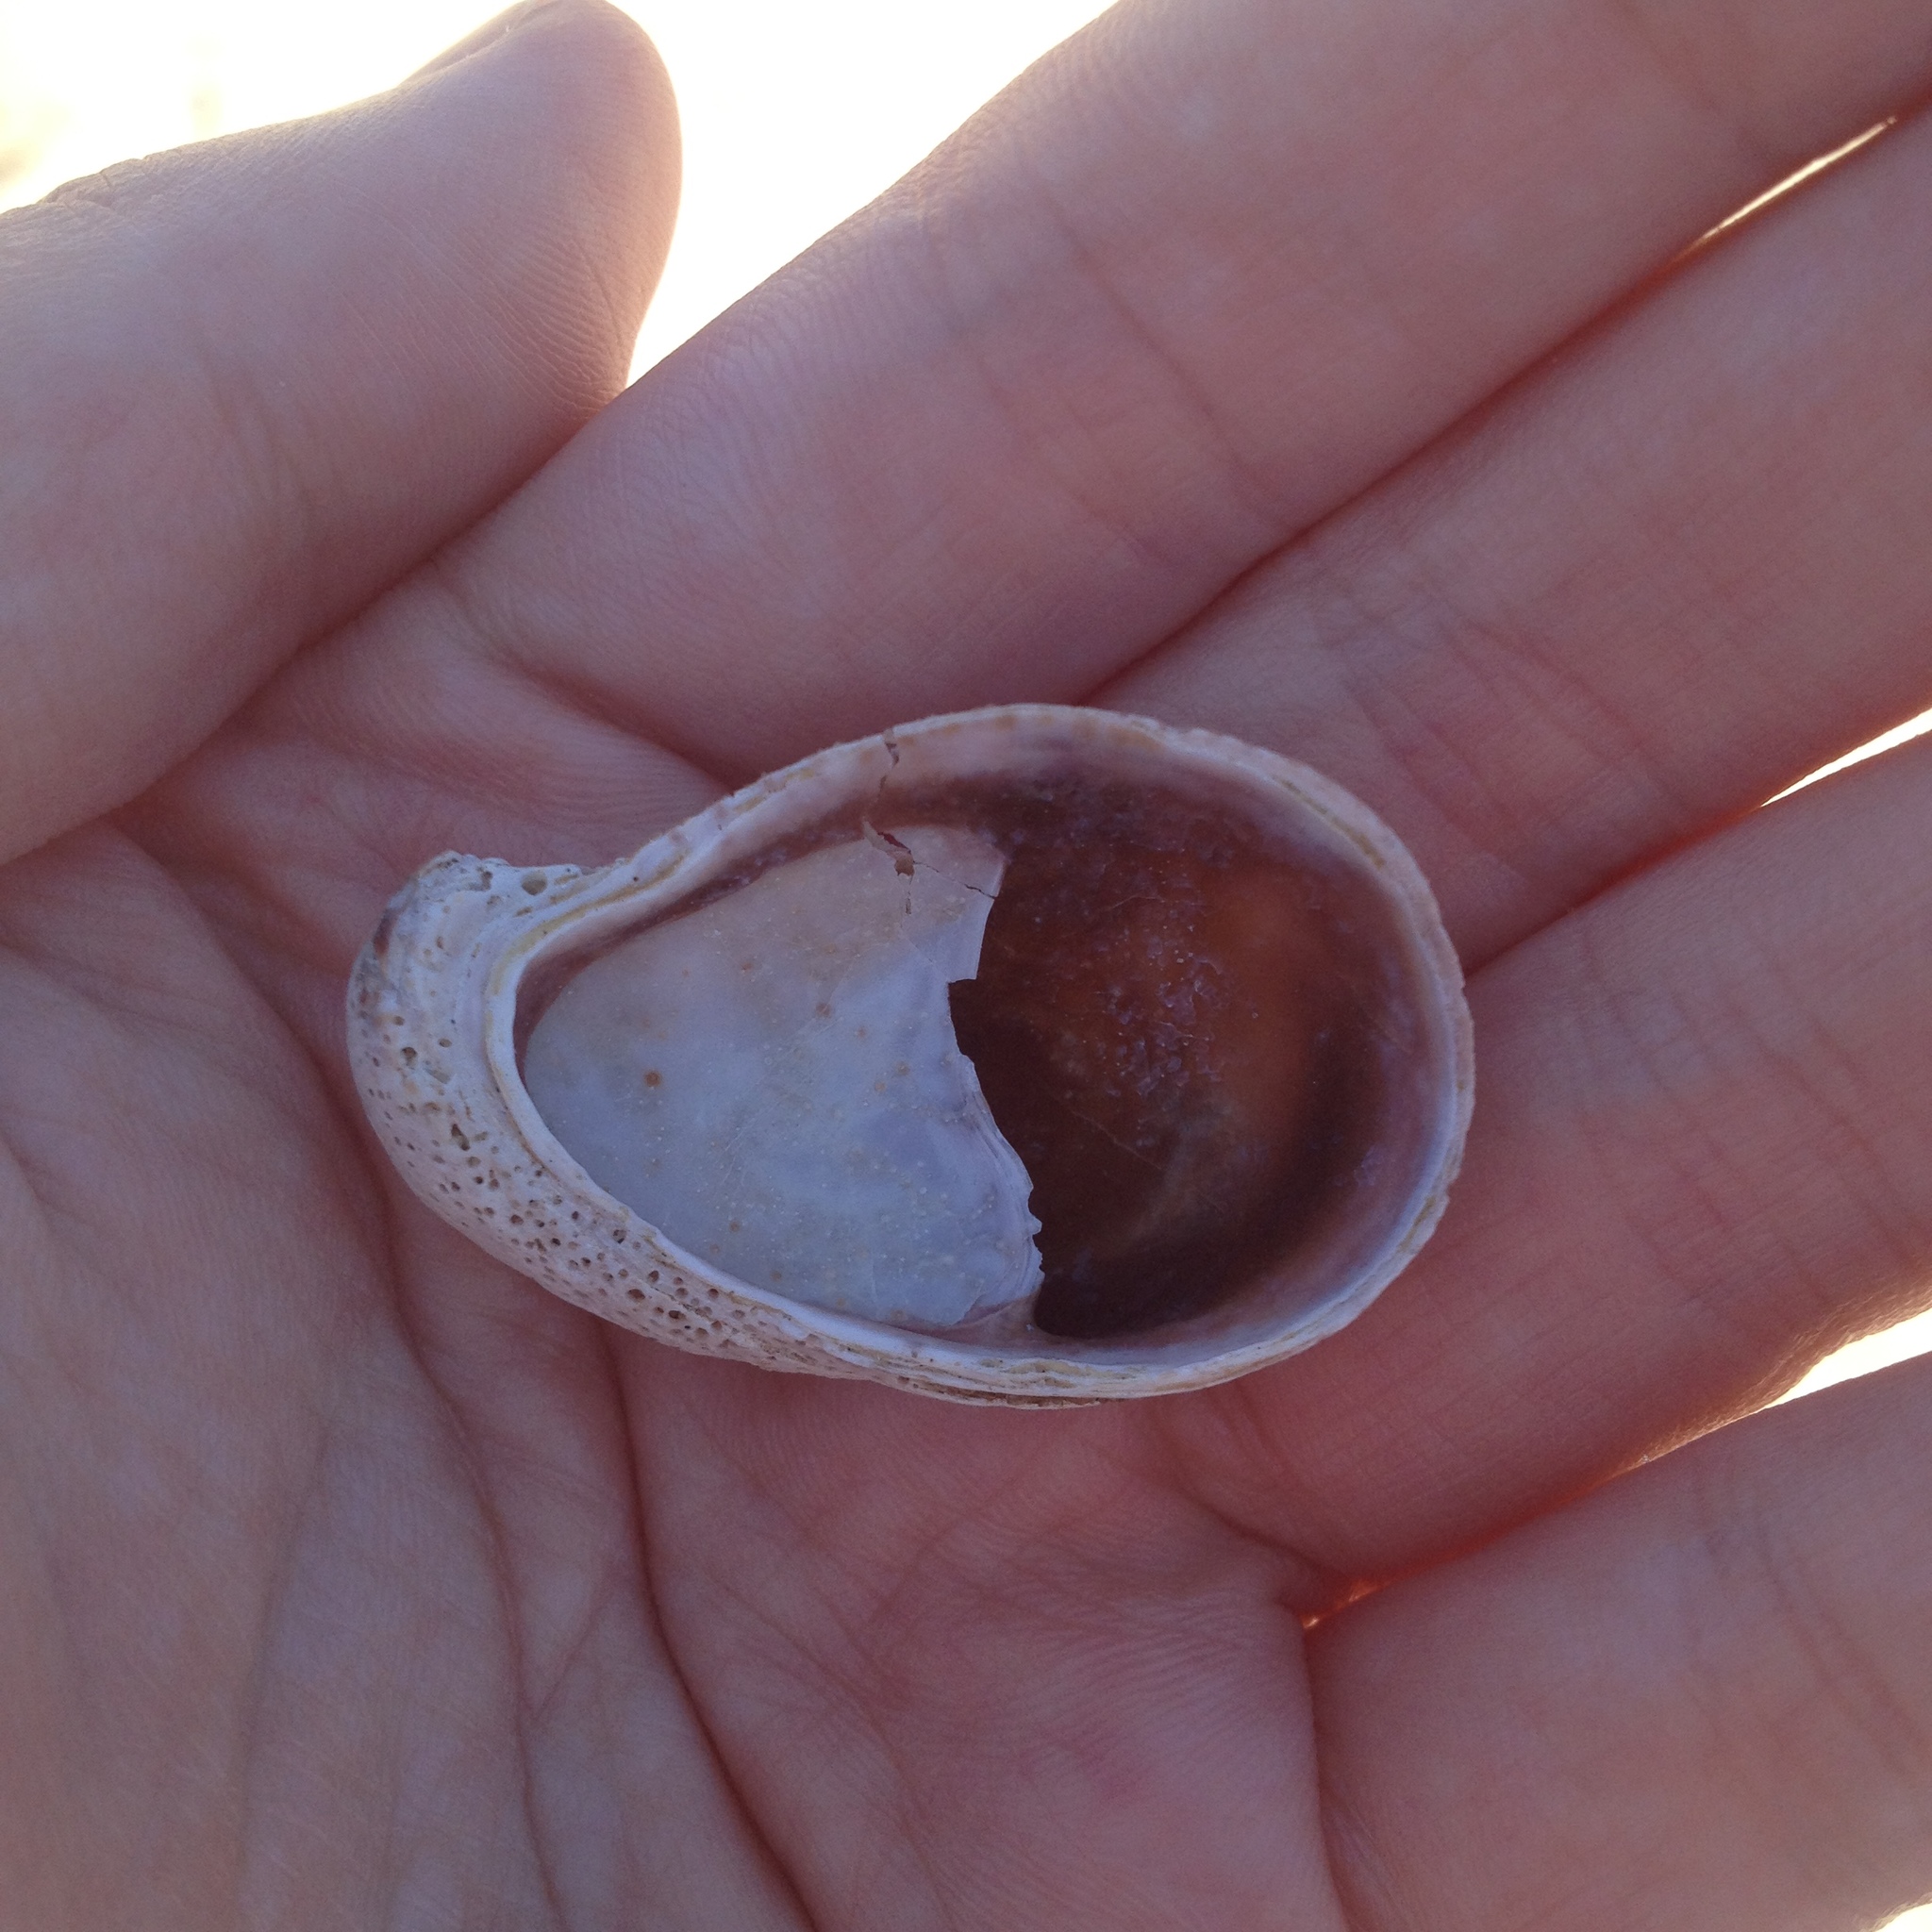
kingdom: Animalia
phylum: Mollusca
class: Gastropoda
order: Littorinimorpha
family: Calyptraeidae
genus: Crepidula
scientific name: Crepidula fornicata
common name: Slipper limpet
